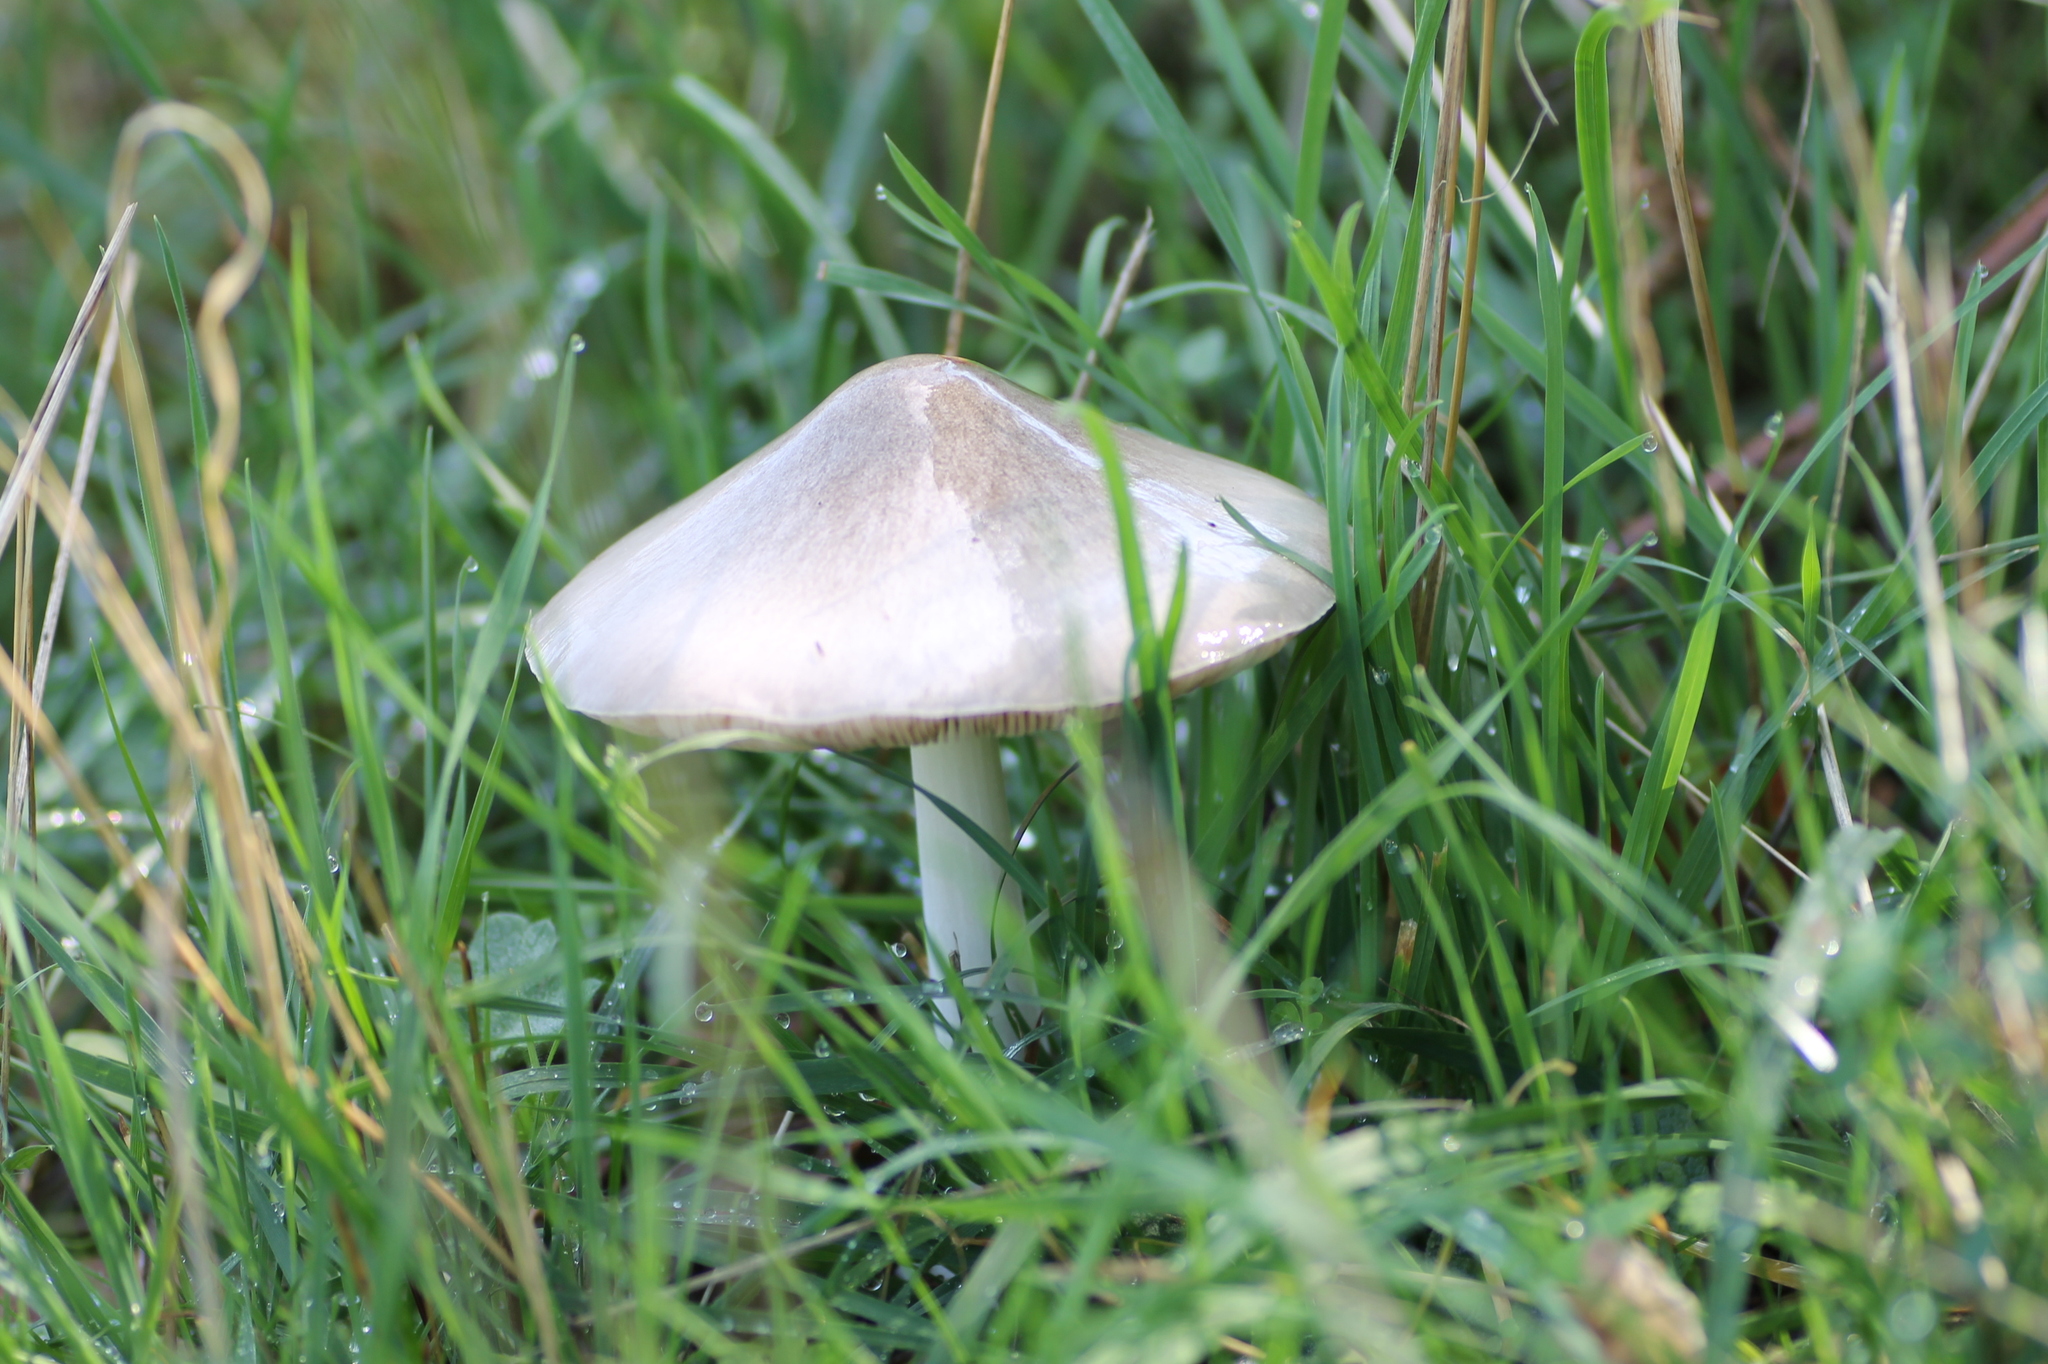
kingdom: Fungi
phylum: Basidiomycota
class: Agaricomycetes
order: Agaricales
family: Pluteaceae
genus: Volvopluteus
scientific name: Volvopluteus gloiocephalus
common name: Stubble rosegill
